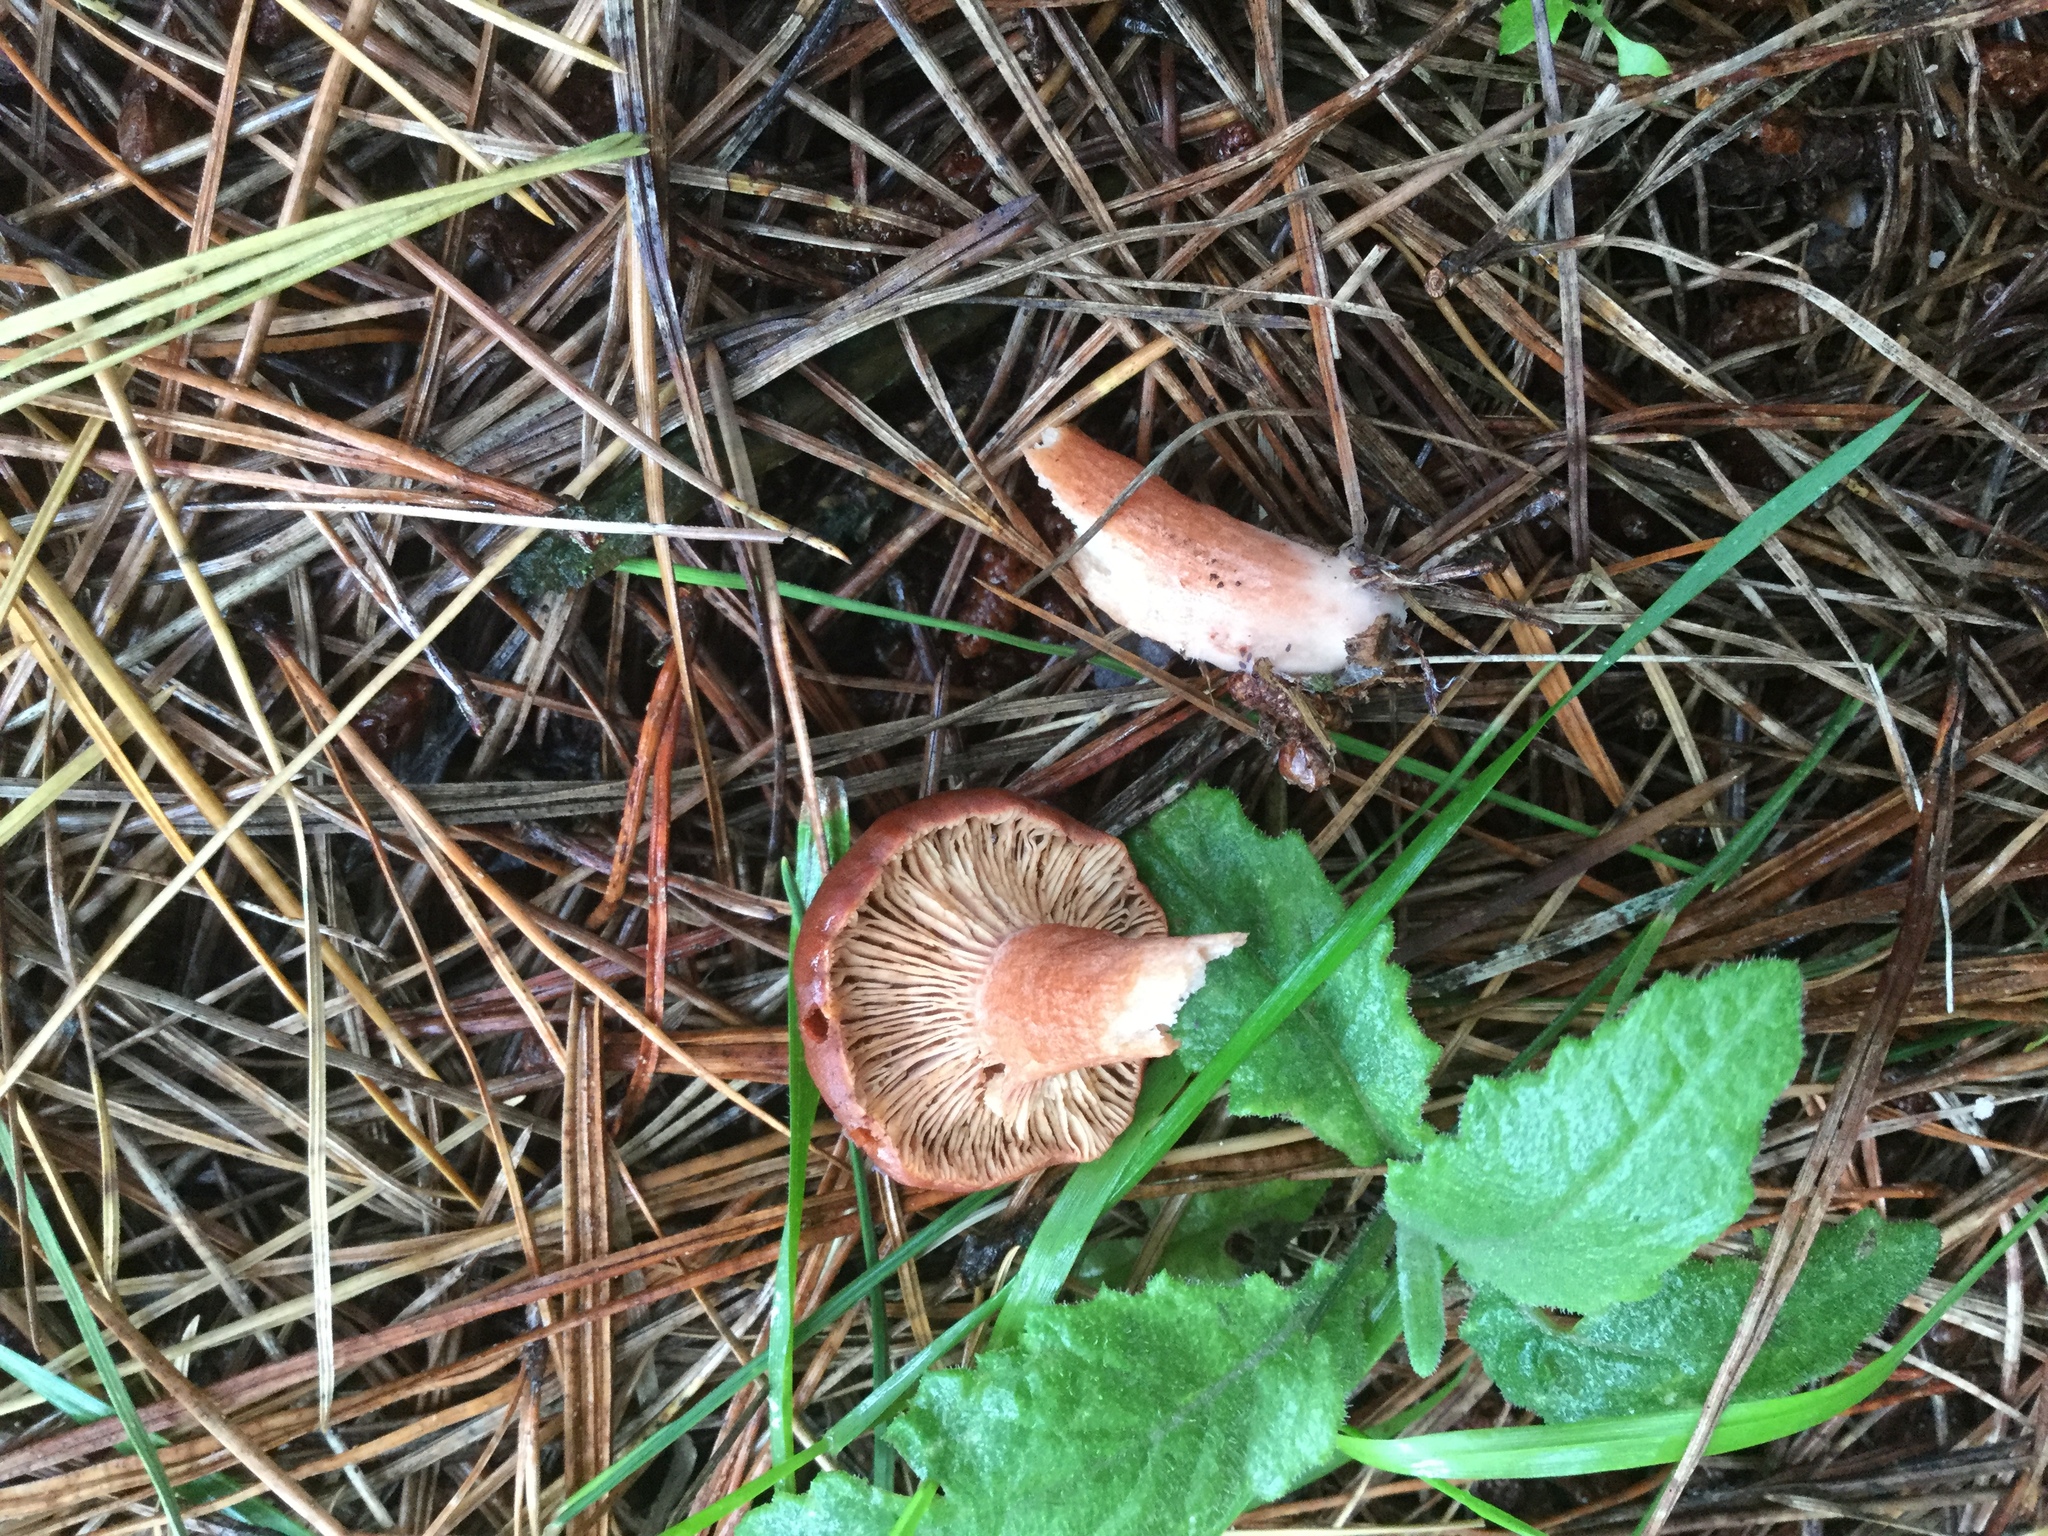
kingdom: Fungi
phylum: Basidiomycota
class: Agaricomycetes
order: Russulales
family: Russulaceae
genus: Lactarius
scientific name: Lactarius rufus
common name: Rufous milk-cap
